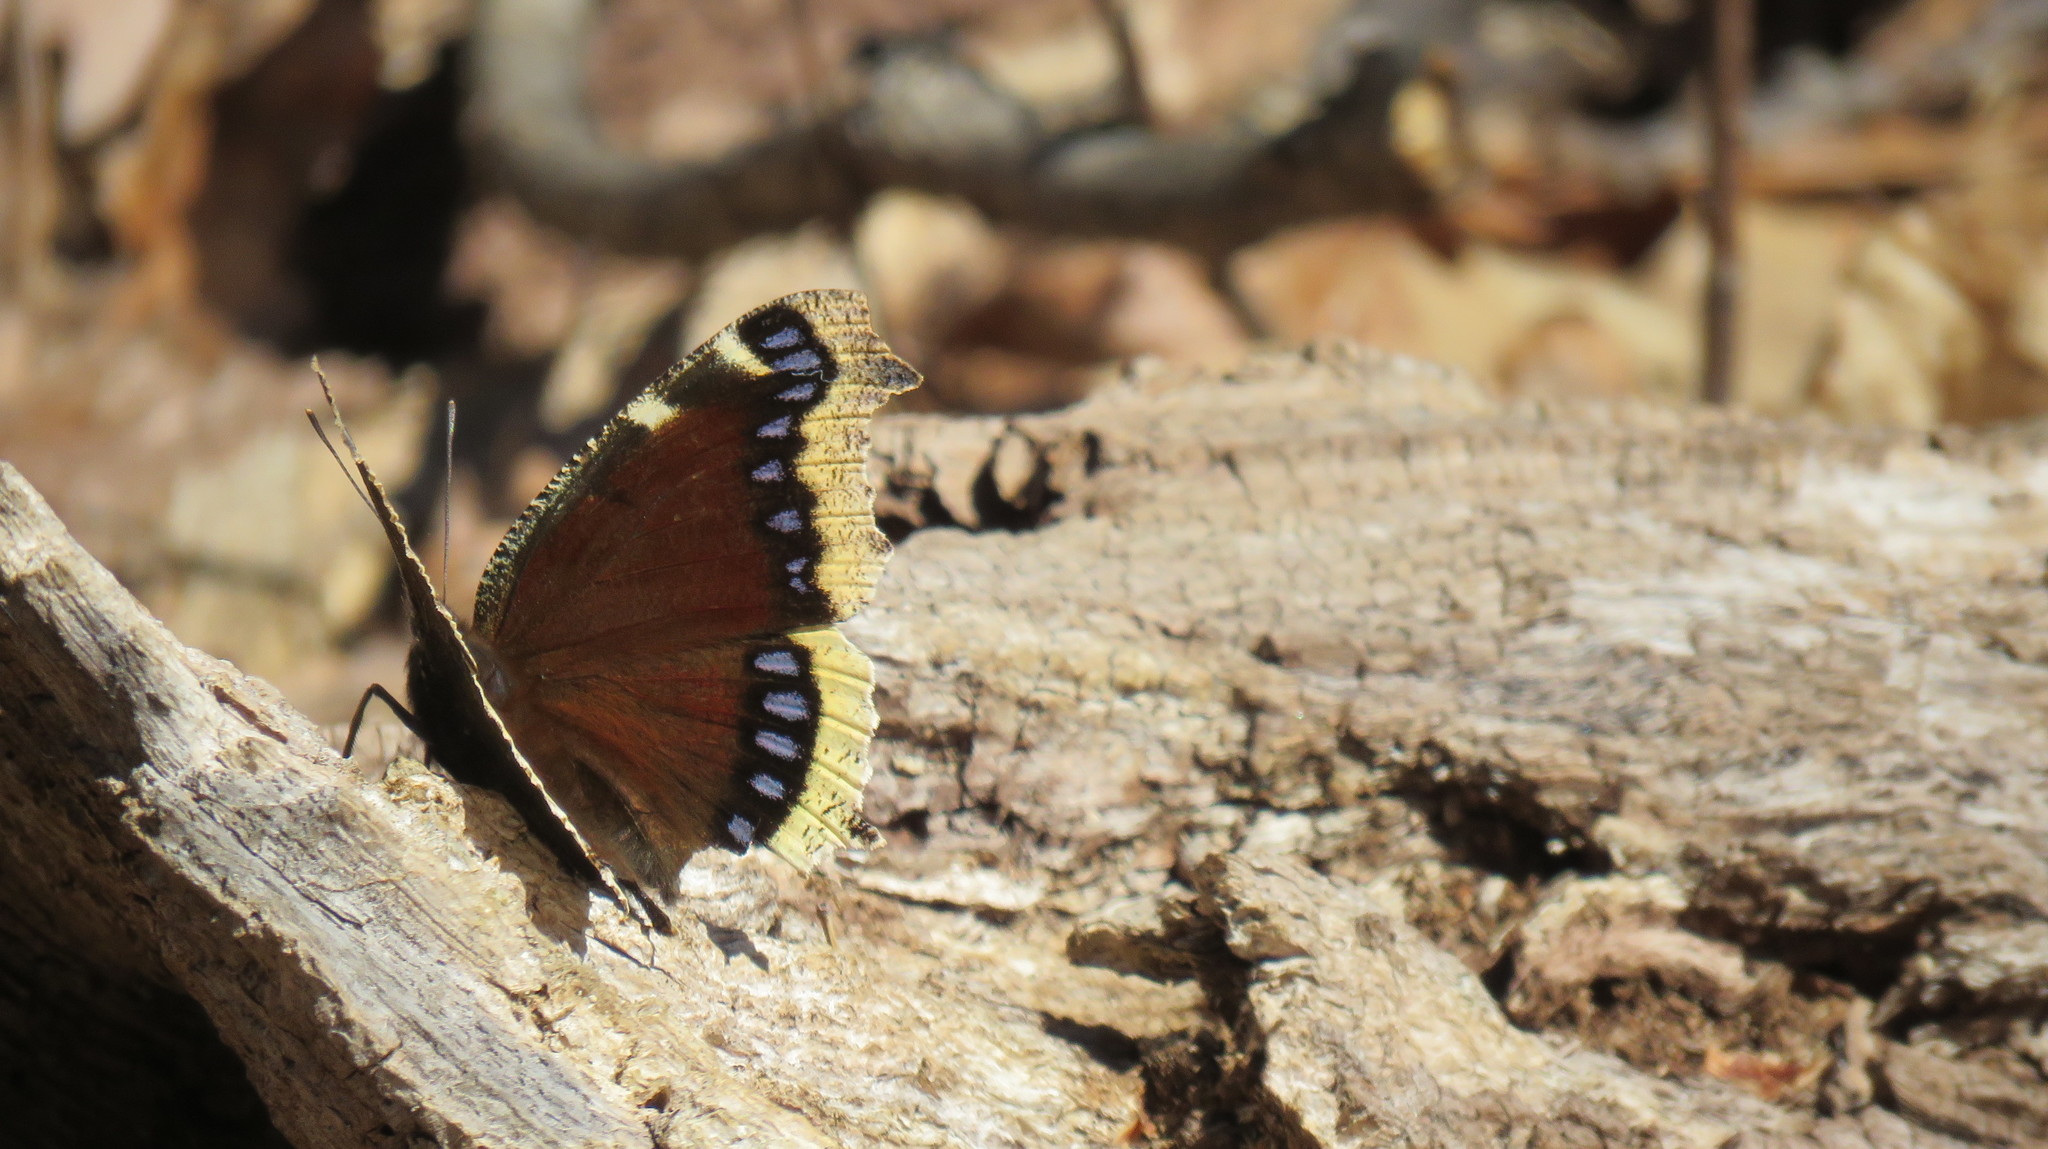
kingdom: Animalia
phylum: Arthropoda
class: Insecta
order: Lepidoptera
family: Nymphalidae
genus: Nymphalis
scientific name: Nymphalis antiopa
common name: Camberwell beauty
